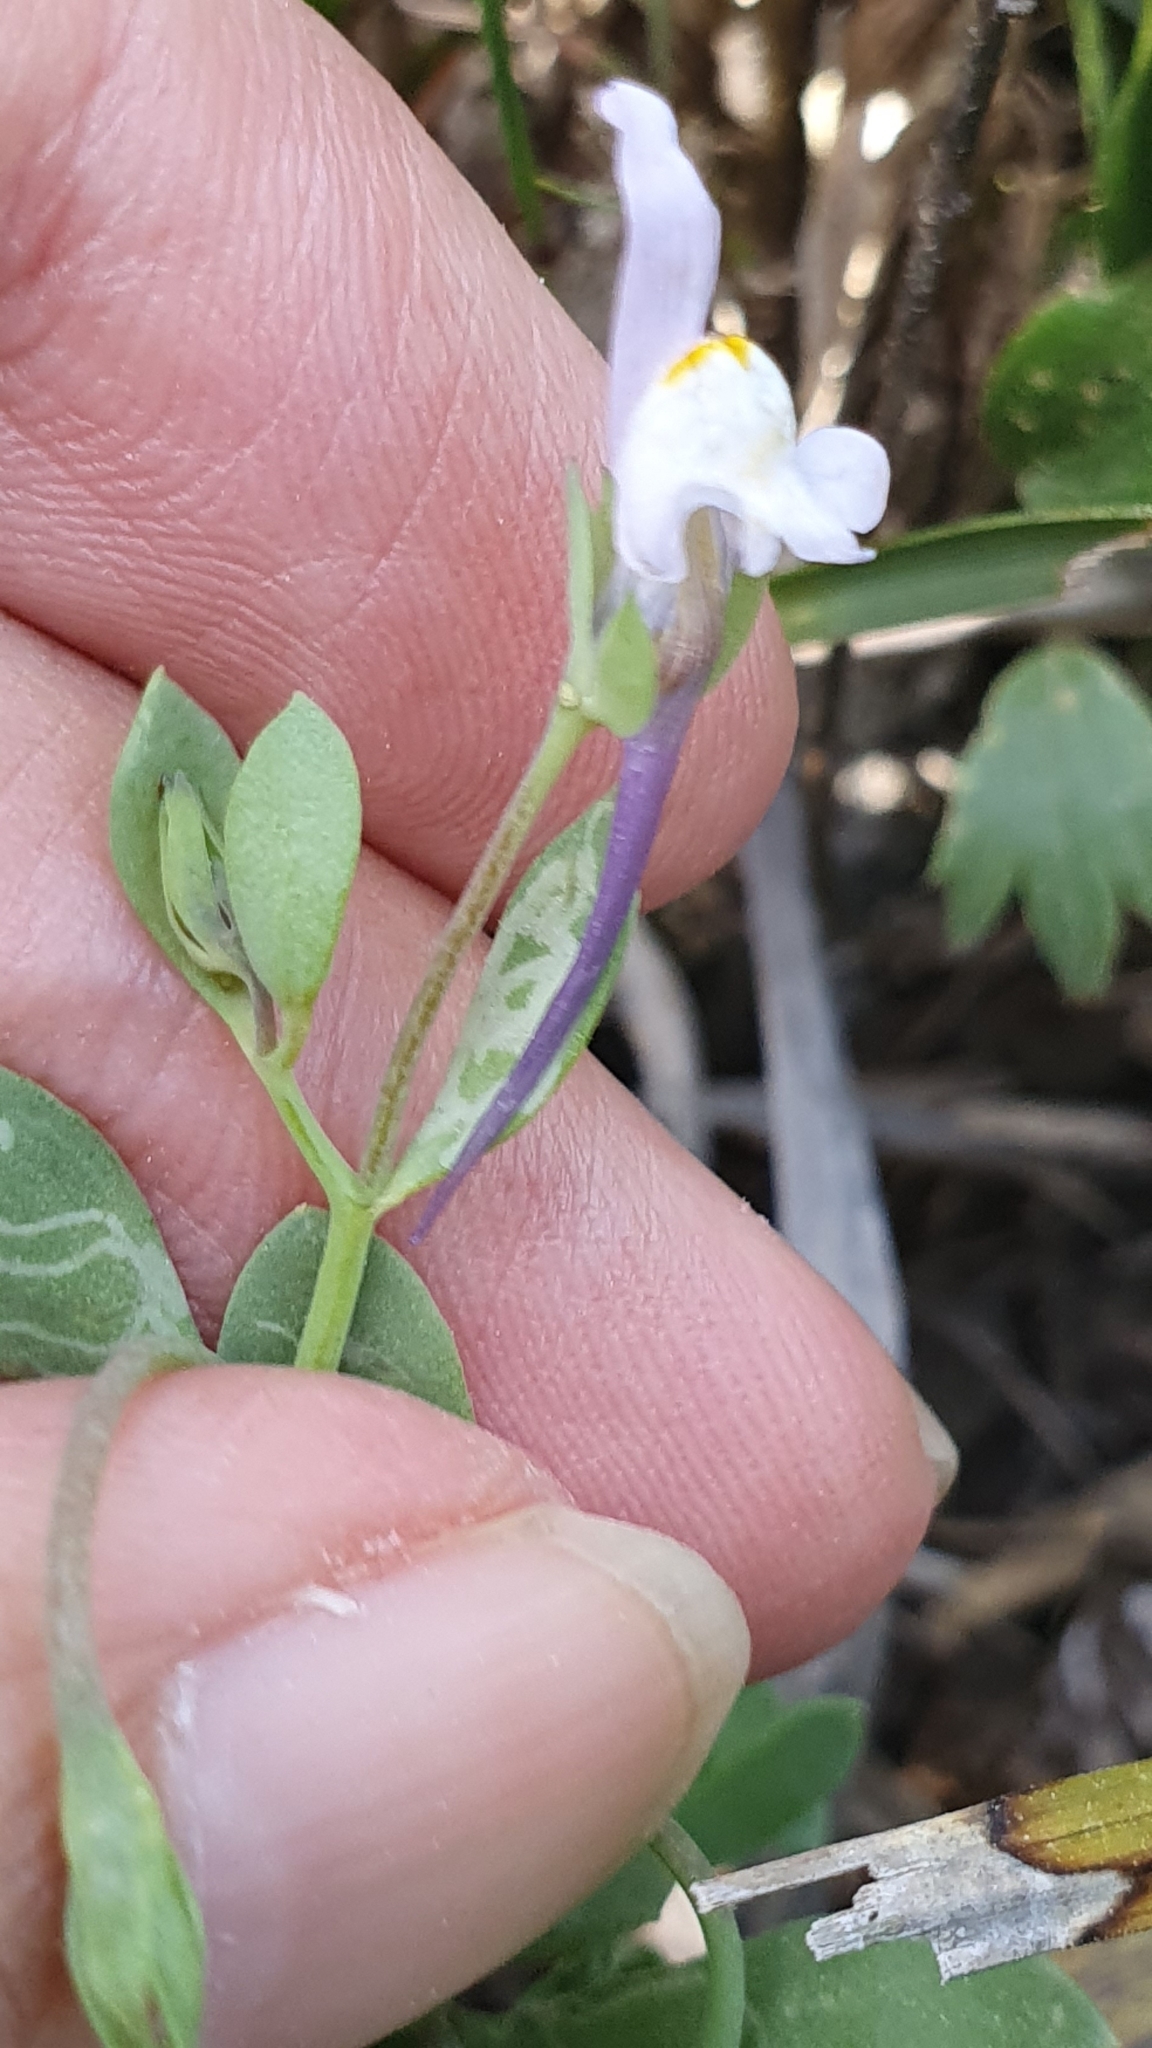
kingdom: Plantae
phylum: Tracheophyta
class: Magnoliopsida
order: Lamiales
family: Plantaginaceae
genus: Linaria
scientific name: Linaria reflexa
